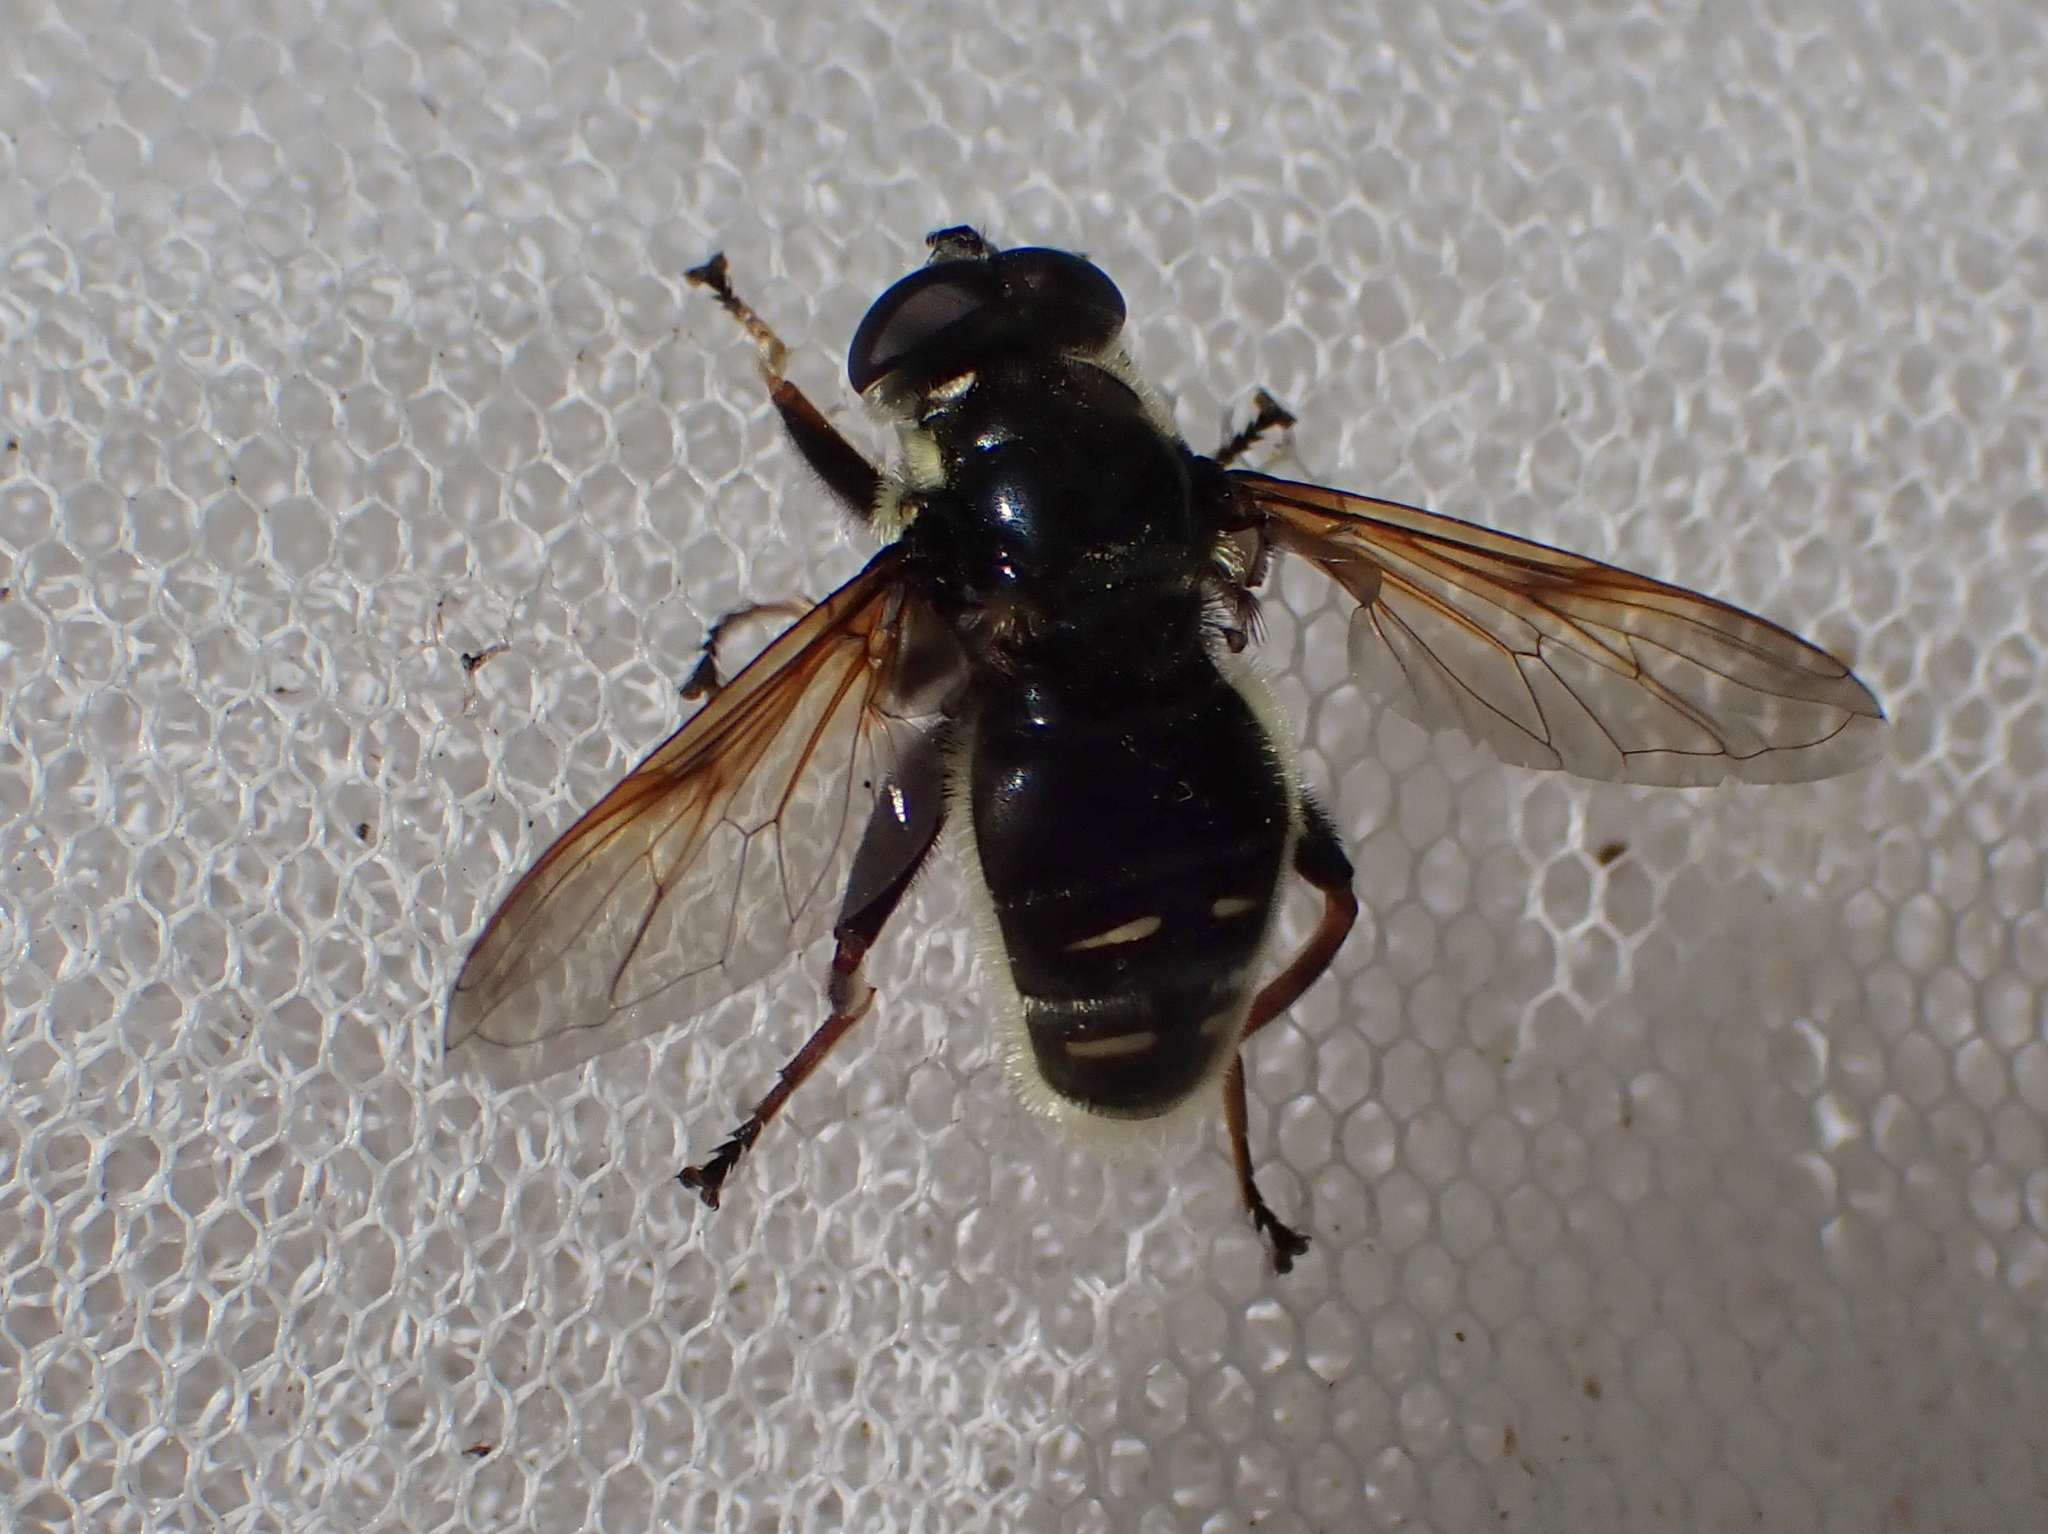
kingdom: Animalia
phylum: Arthropoda
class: Insecta
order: Diptera
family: Syrphidae
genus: Sericomyia
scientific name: Sericomyia militaris
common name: Narrow-banded pond fly
